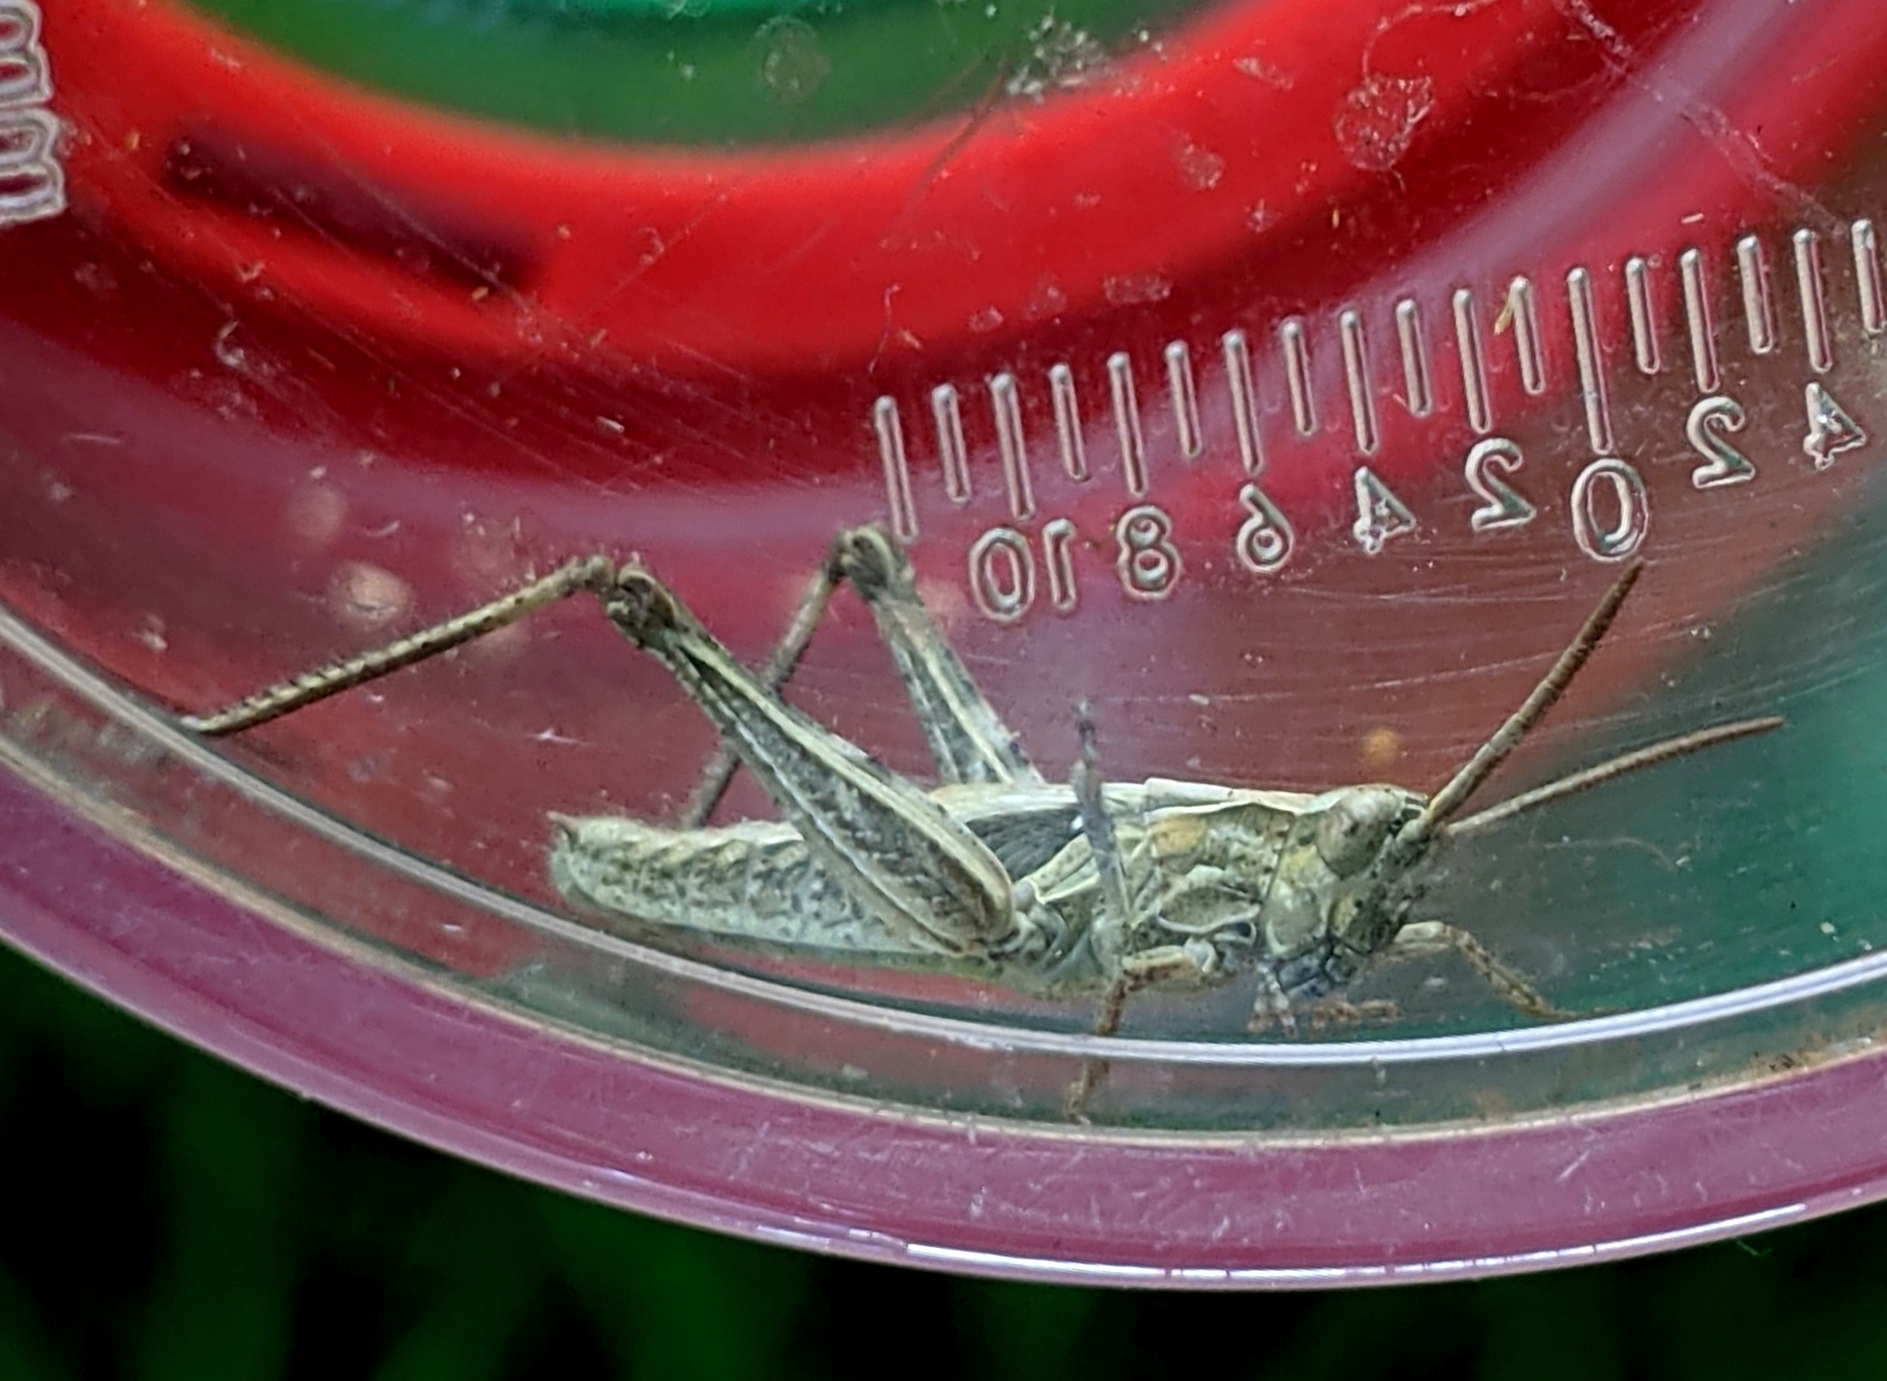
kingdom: Animalia
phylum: Arthropoda
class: Insecta
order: Orthoptera
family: Acrididae
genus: Chorthippus
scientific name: Chorthippus brunneus
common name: Field grasshopper
